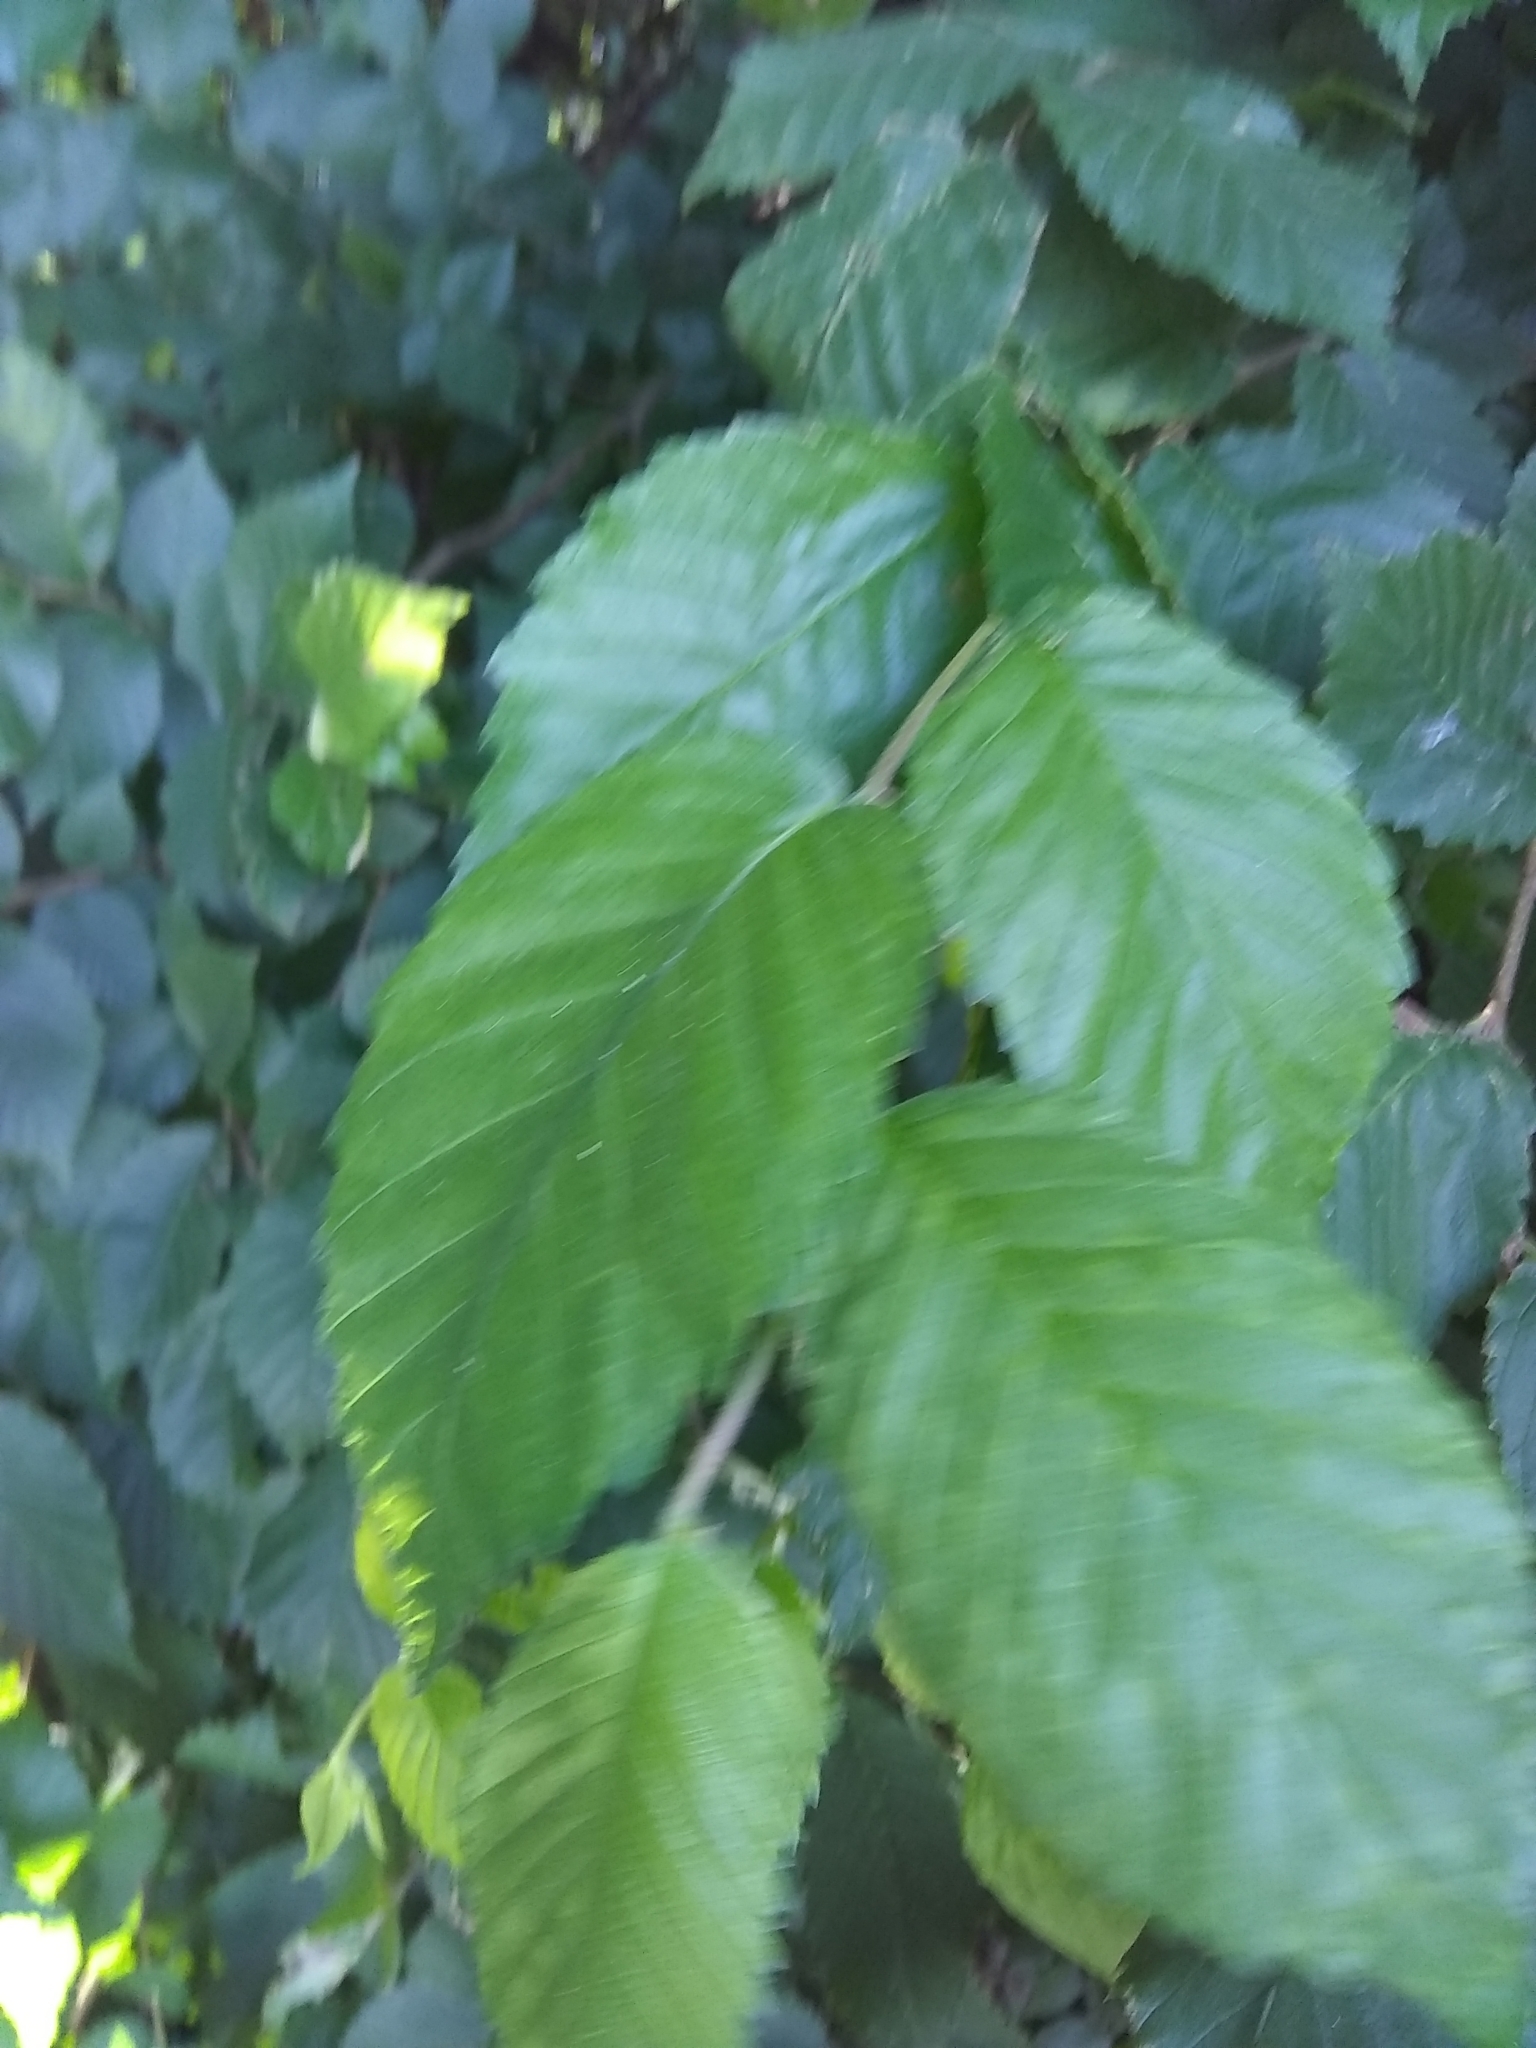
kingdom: Plantae
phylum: Tracheophyta
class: Magnoliopsida
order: Rosales
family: Ulmaceae
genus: Ulmus
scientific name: Ulmus americana
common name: American elm
